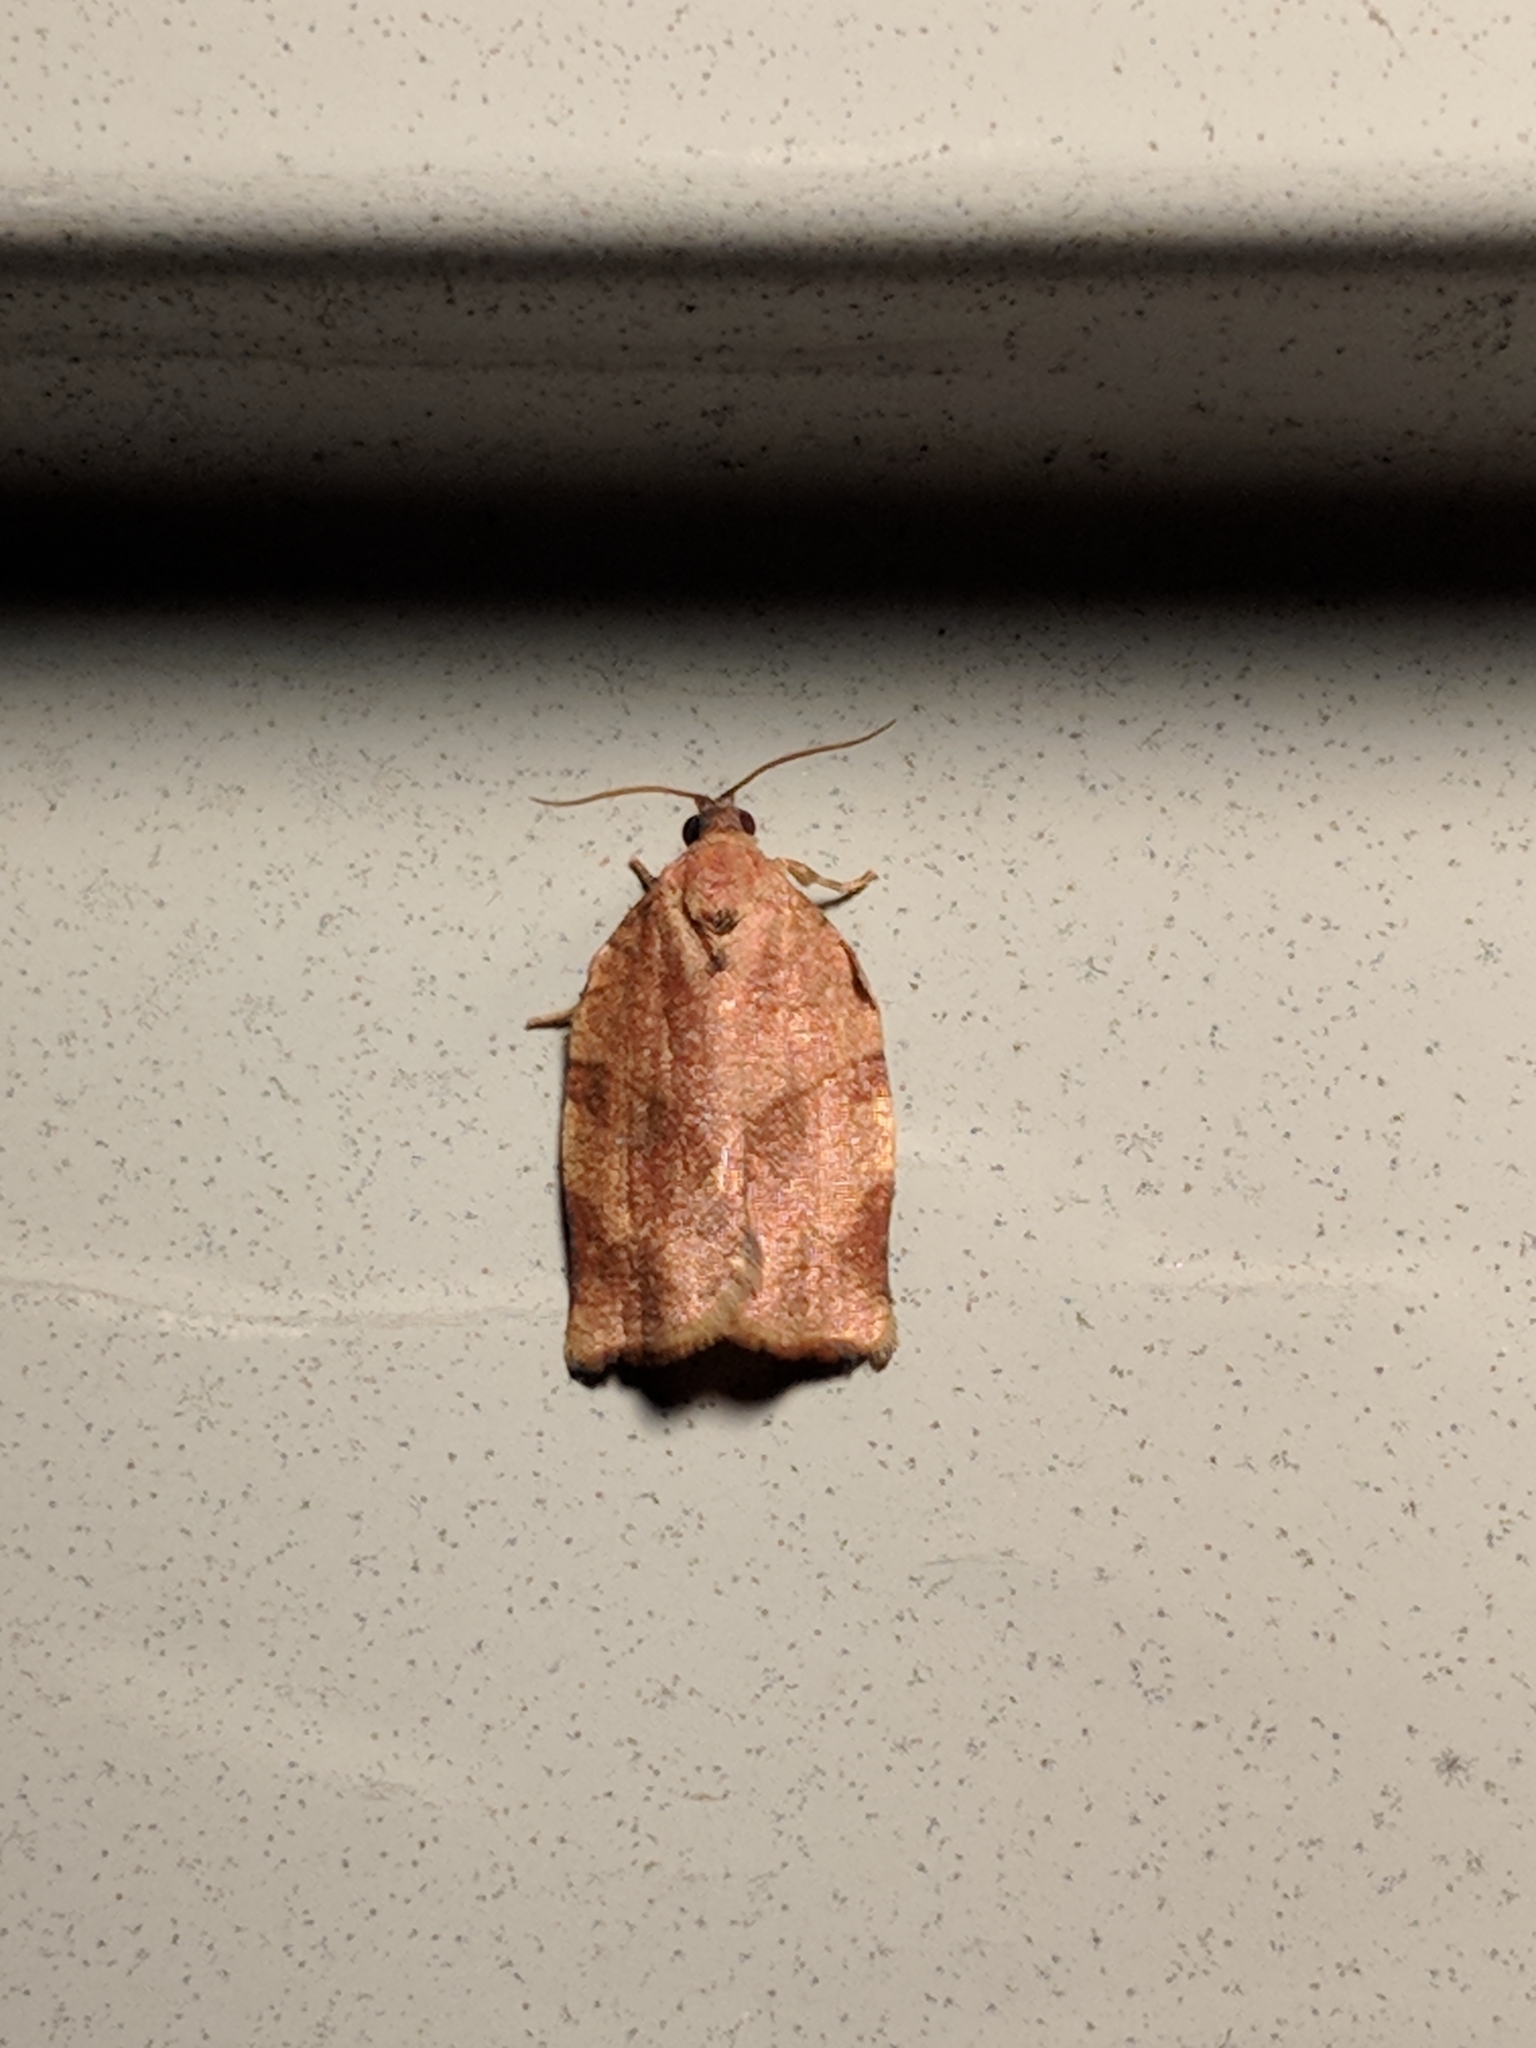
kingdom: Animalia
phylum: Arthropoda
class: Insecta
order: Lepidoptera
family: Tortricidae
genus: Choristoneura
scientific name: Choristoneura rosaceana
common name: Oblique-banded leafroller moth
